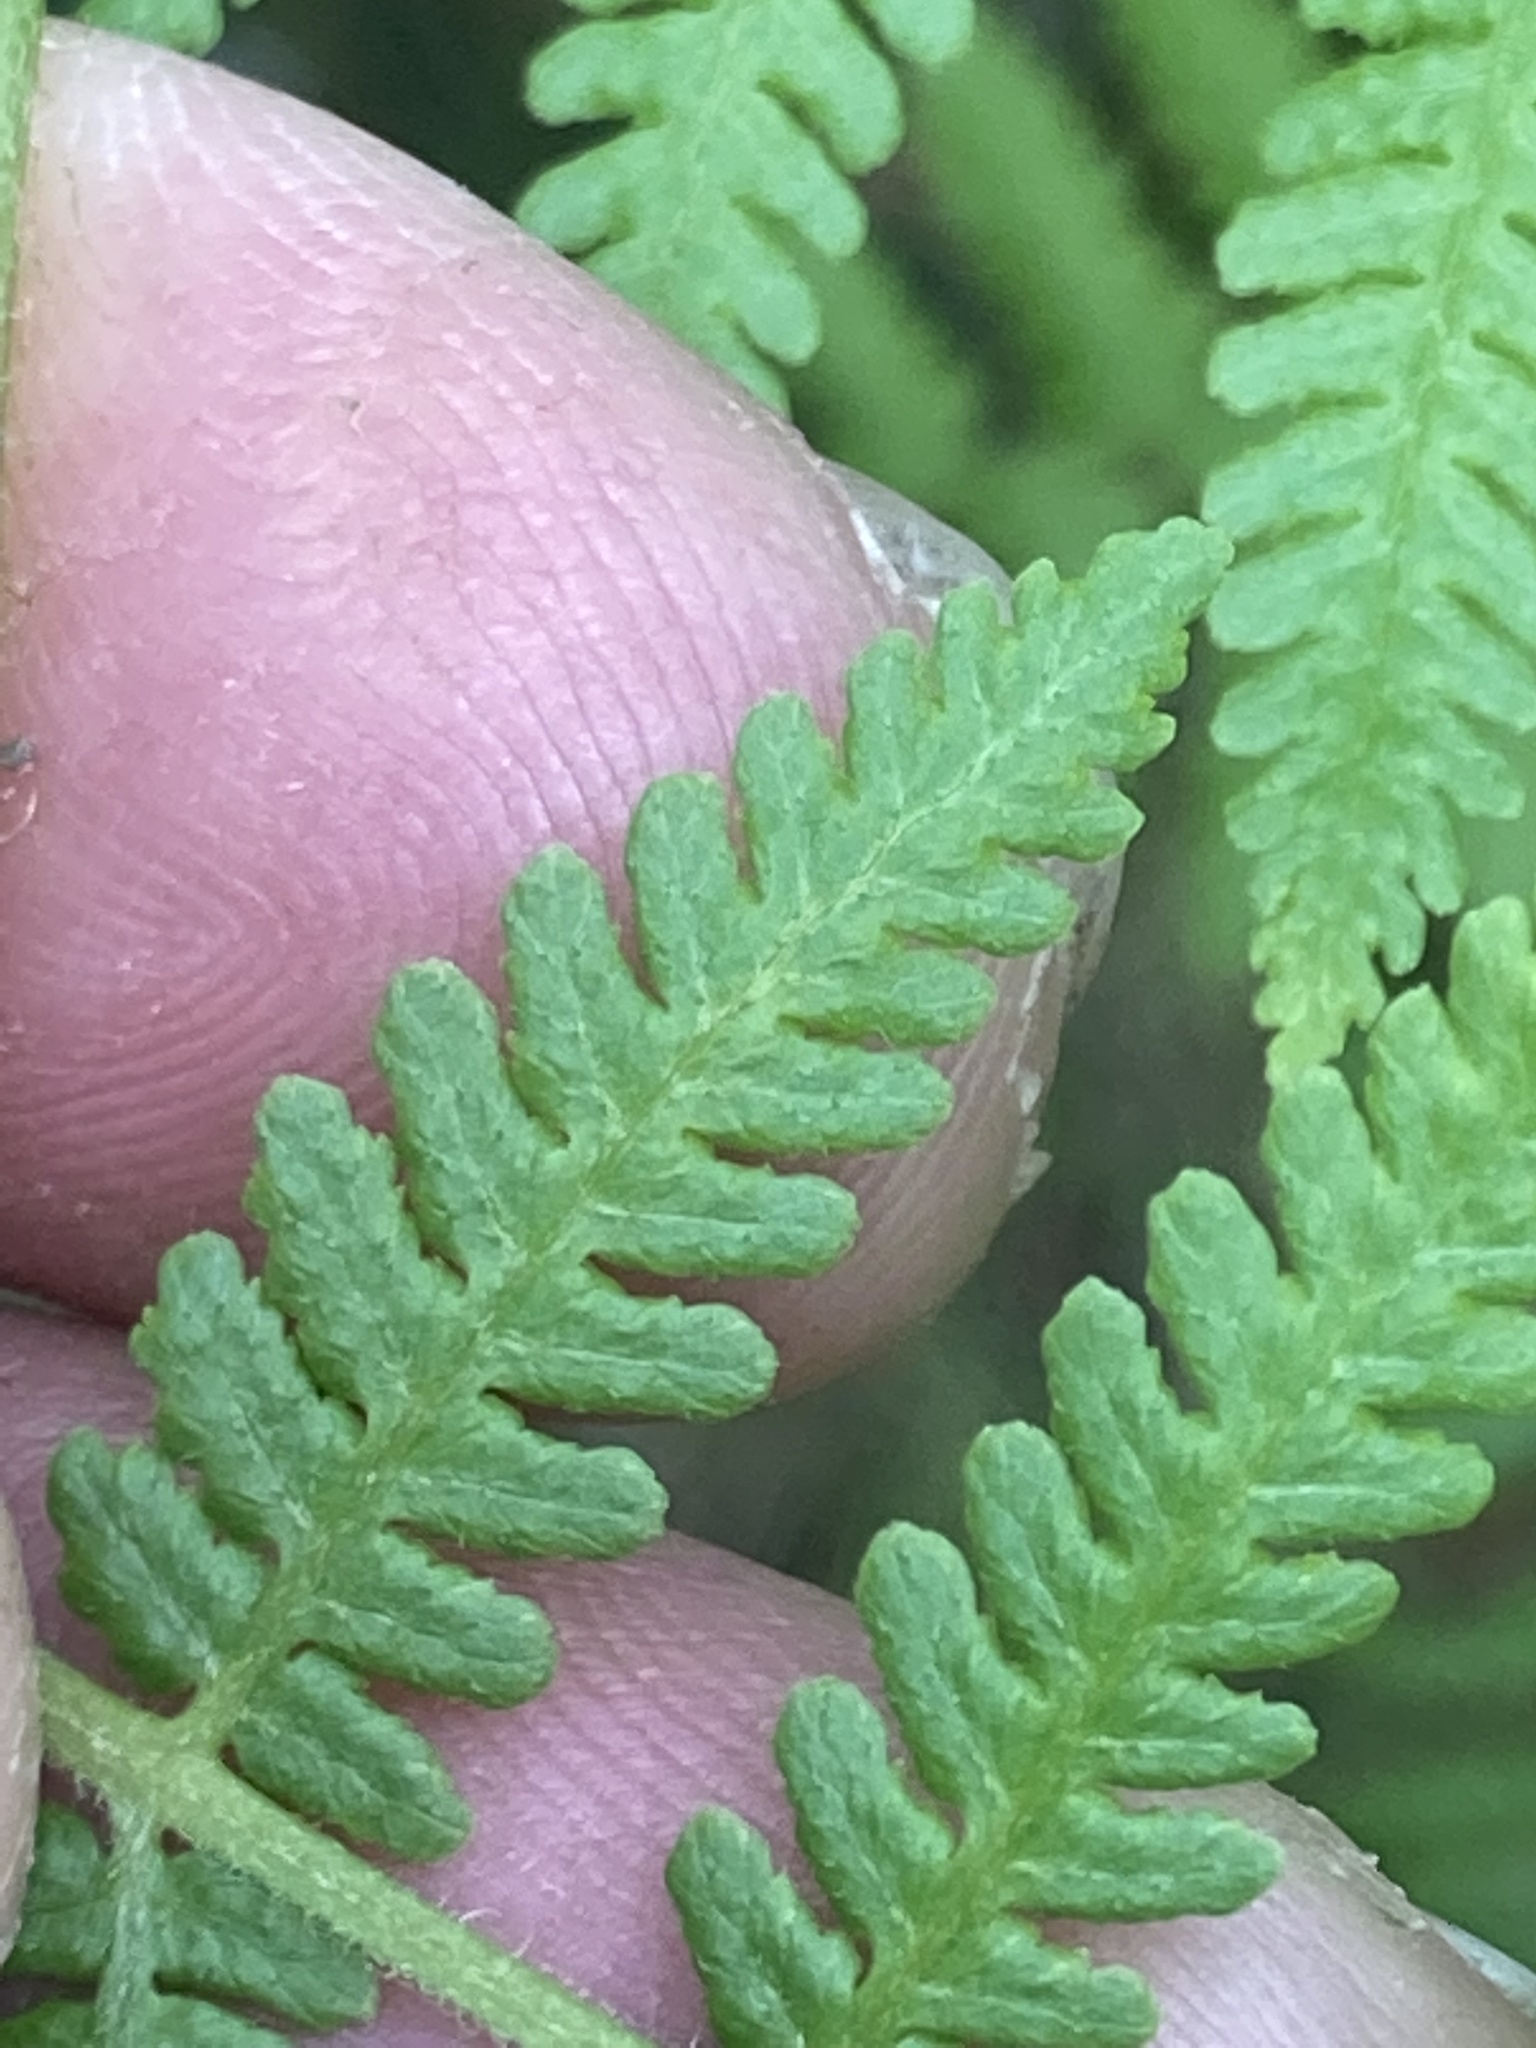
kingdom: Plantae
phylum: Tracheophyta
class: Polypodiopsida
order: Polypodiales
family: Dennstaedtiaceae
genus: Hypolepis
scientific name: Hypolepis ambigua
